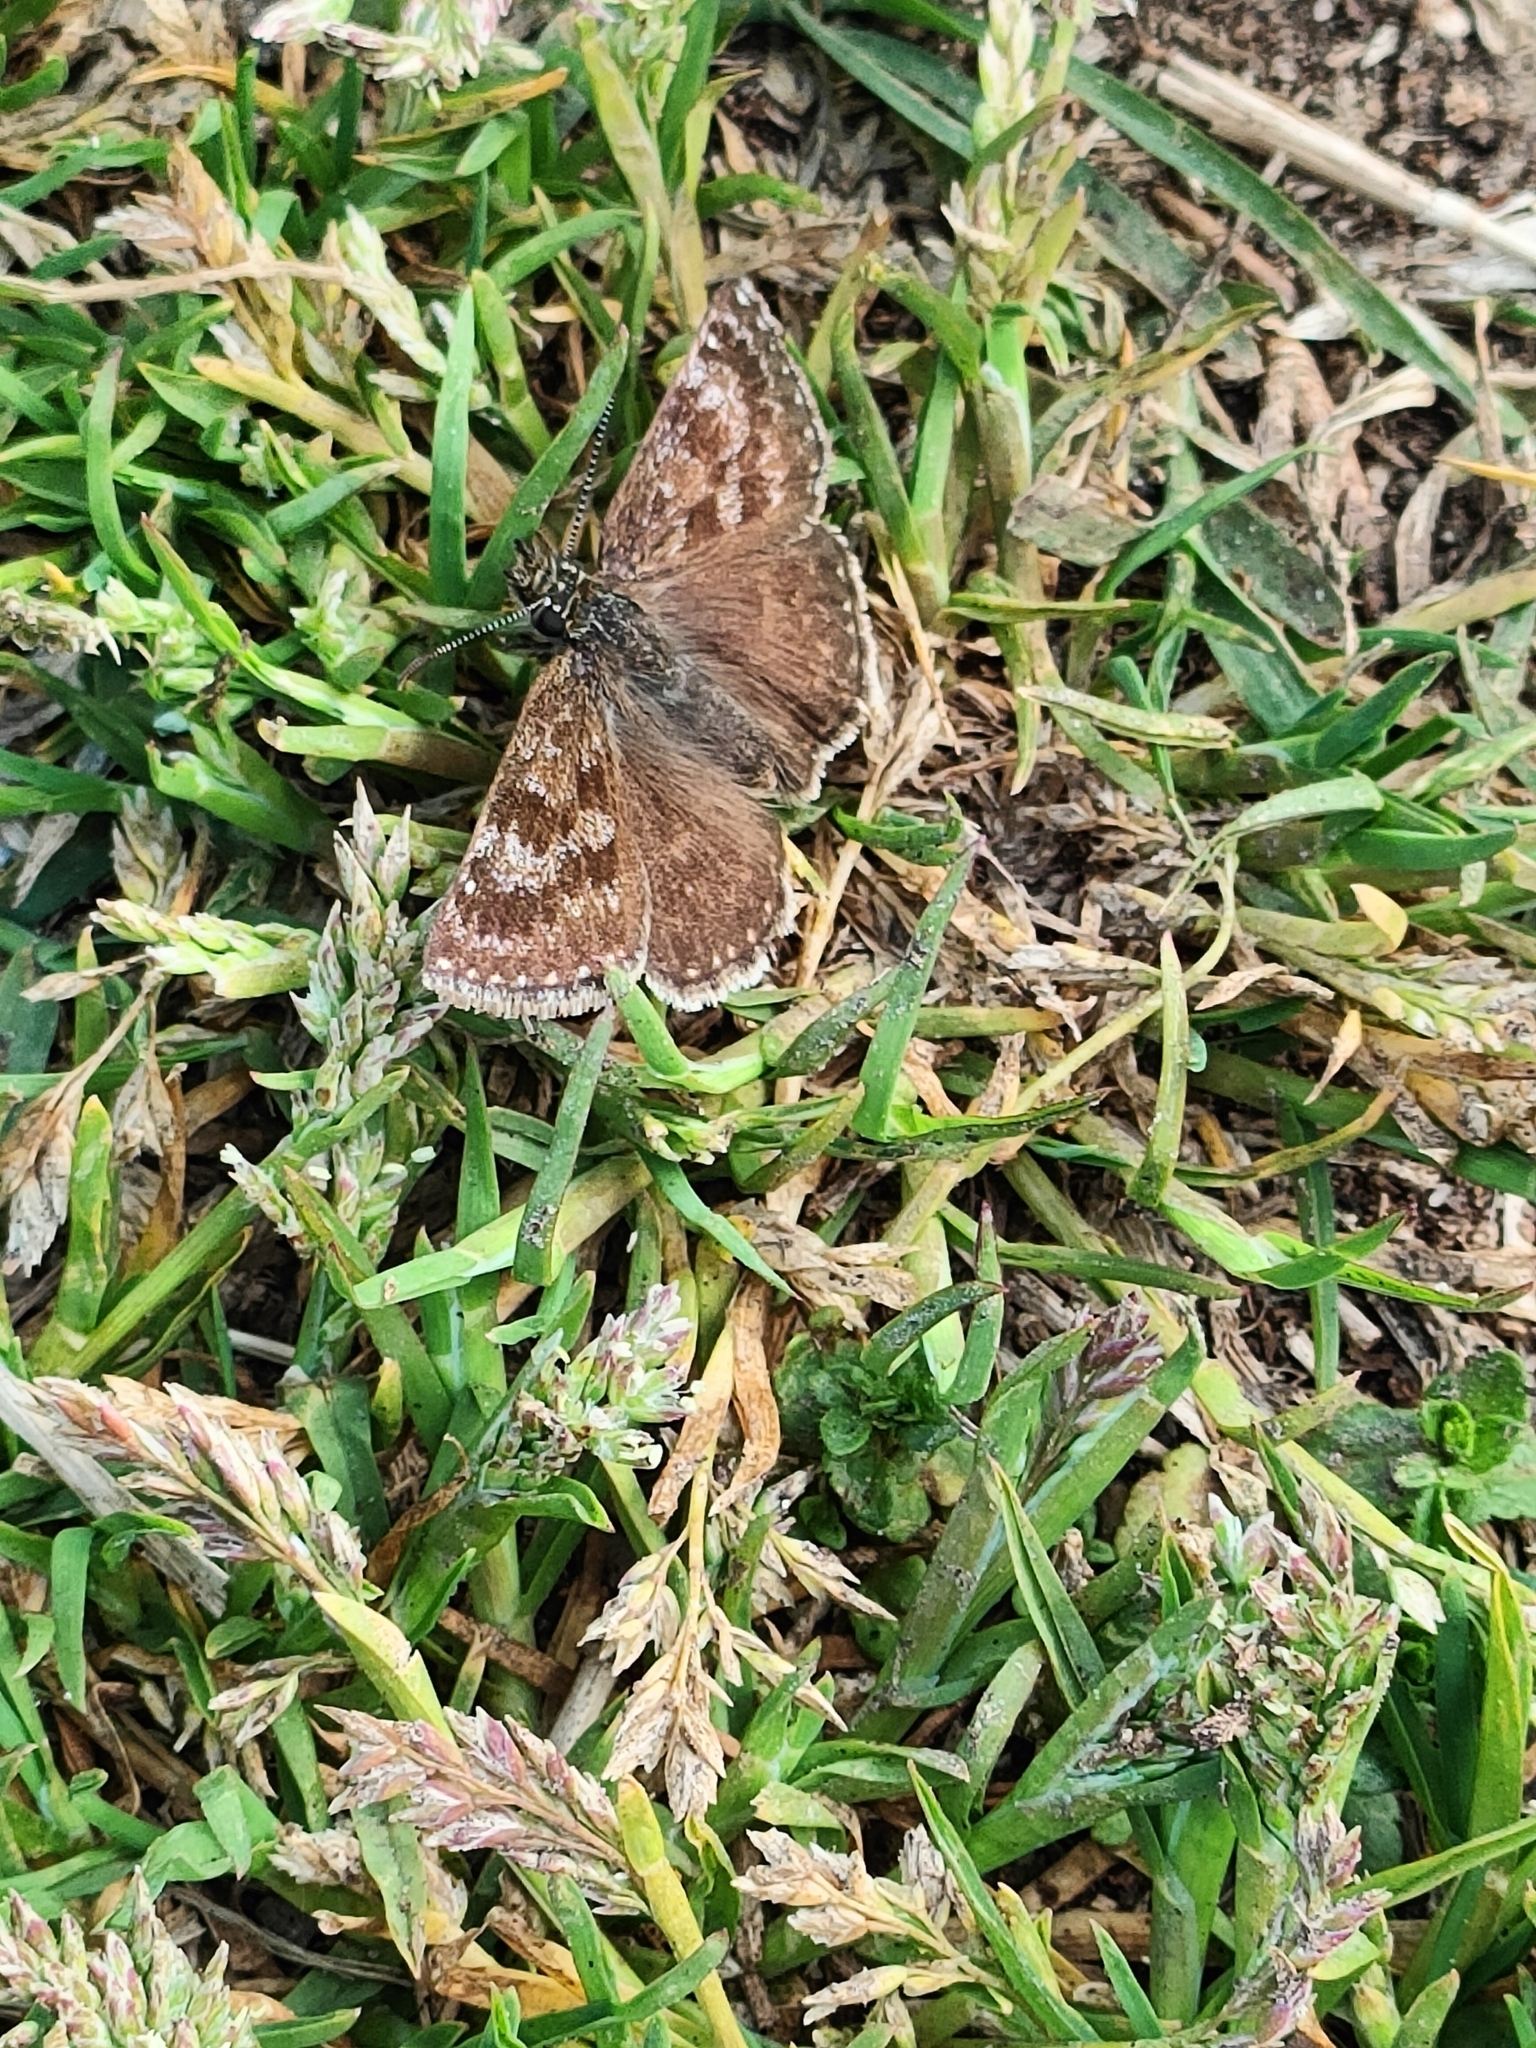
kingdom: Animalia
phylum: Arthropoda
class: Insecta
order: Lepidoptera
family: Hesperiidae
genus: Erynnis
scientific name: Erynnis tages
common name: Dingy skipper
